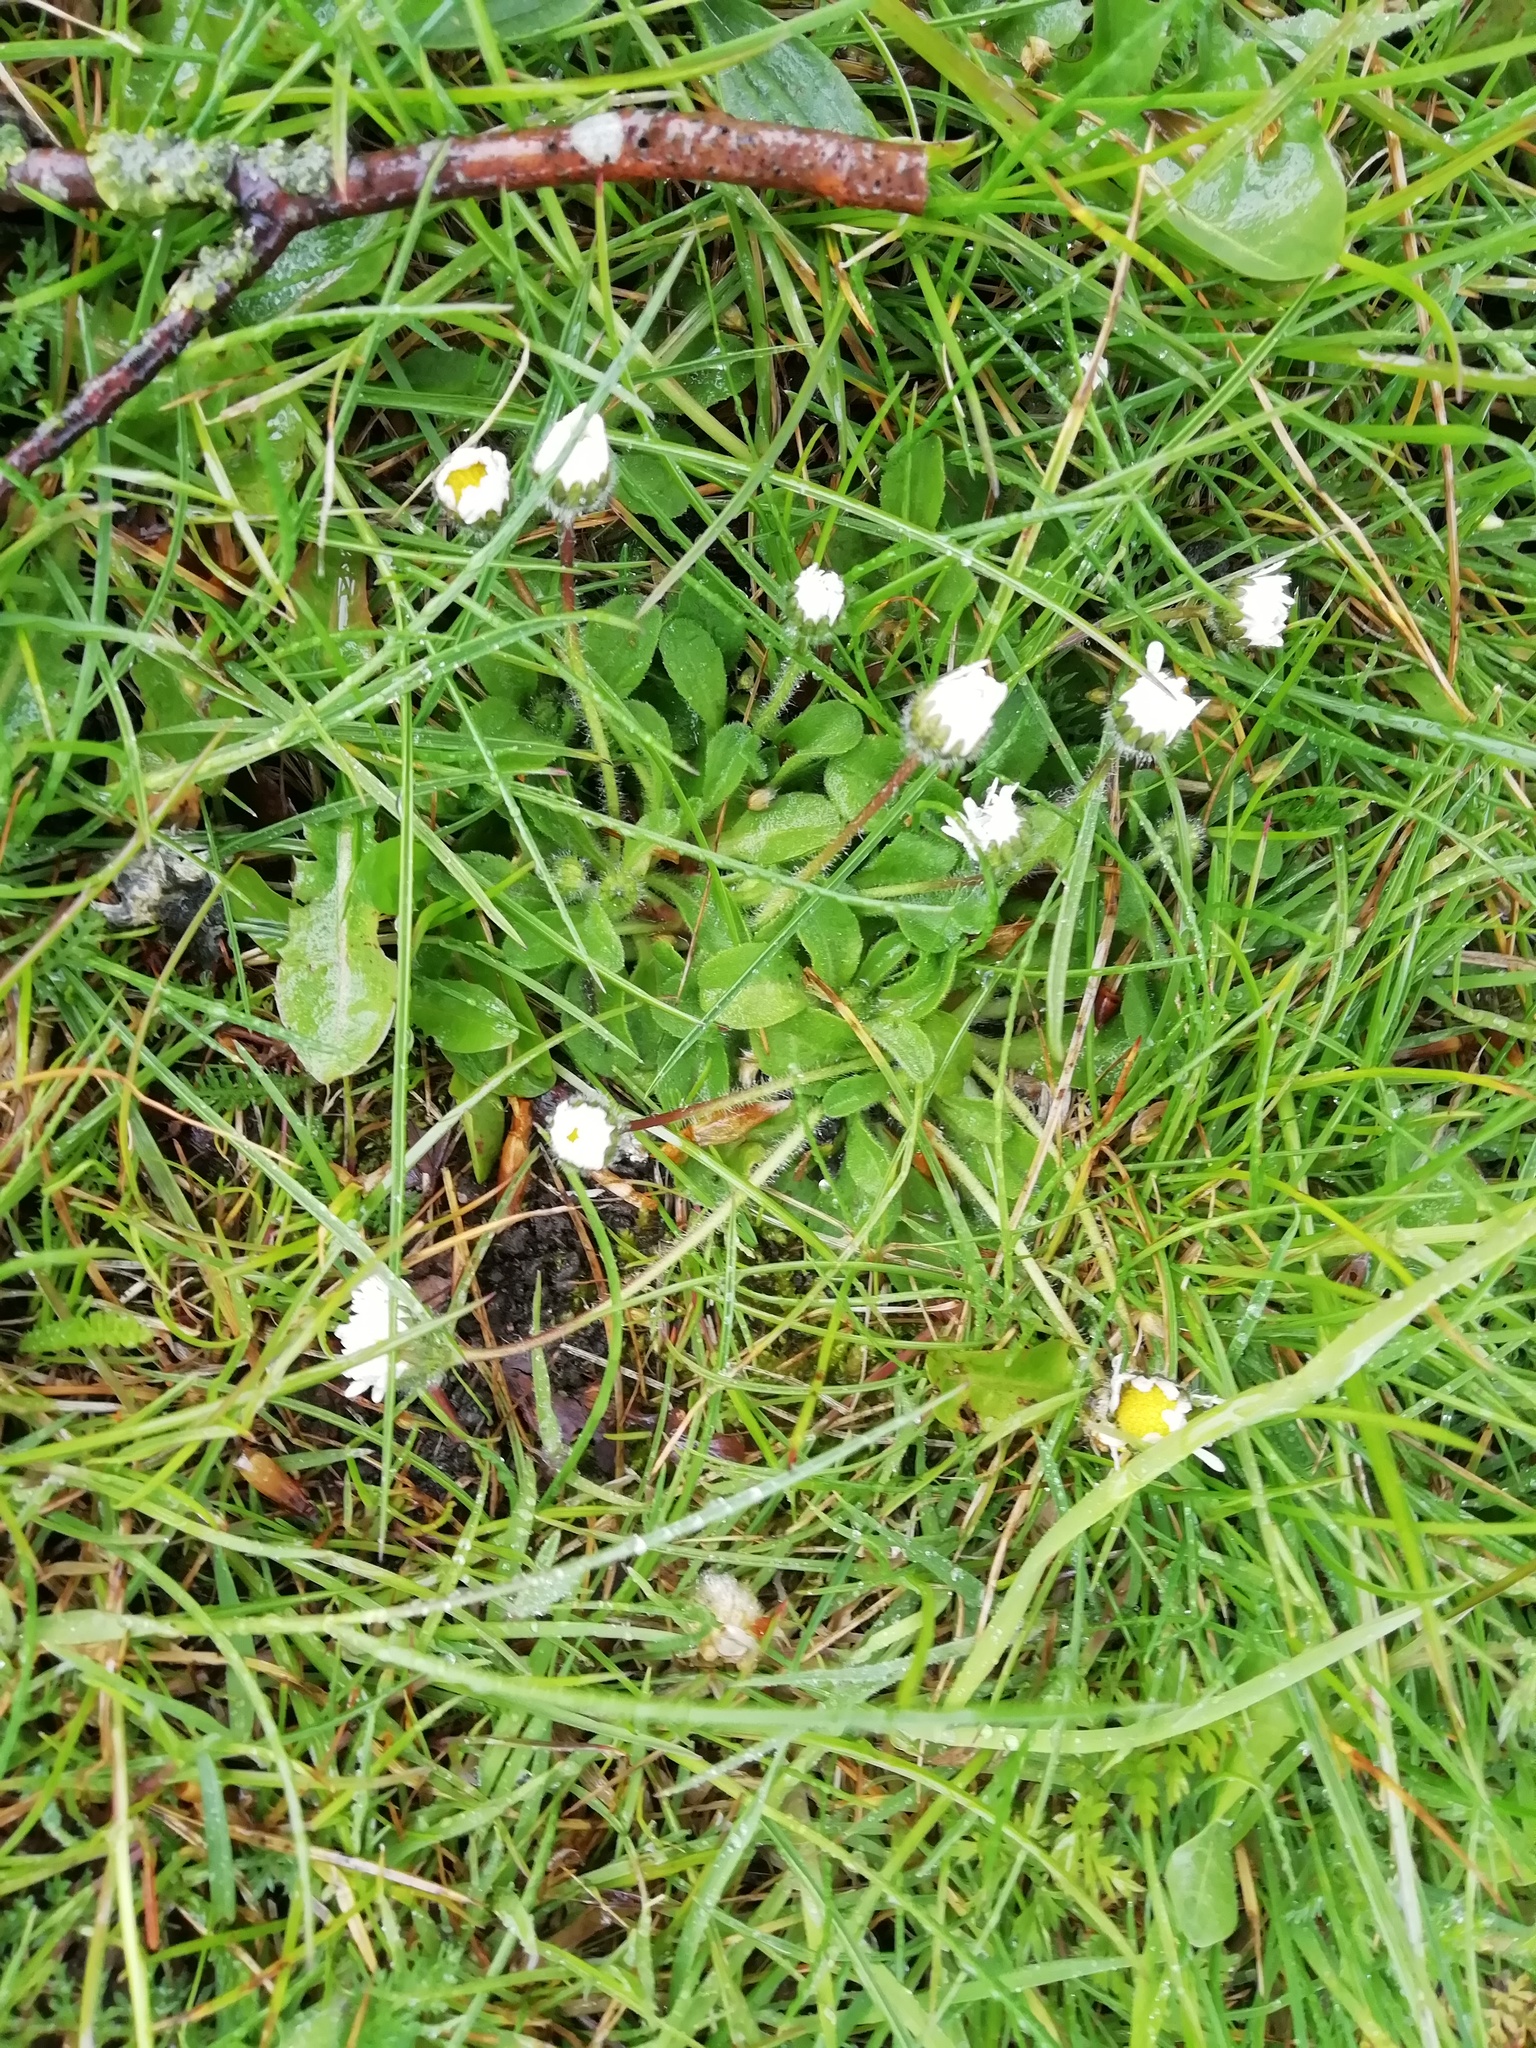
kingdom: Plantae
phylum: Tracheophyta
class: Magnoliopsida
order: Asterales
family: Asteraceae
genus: Bellis
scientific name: Bellis perennis
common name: Lawndaisy
